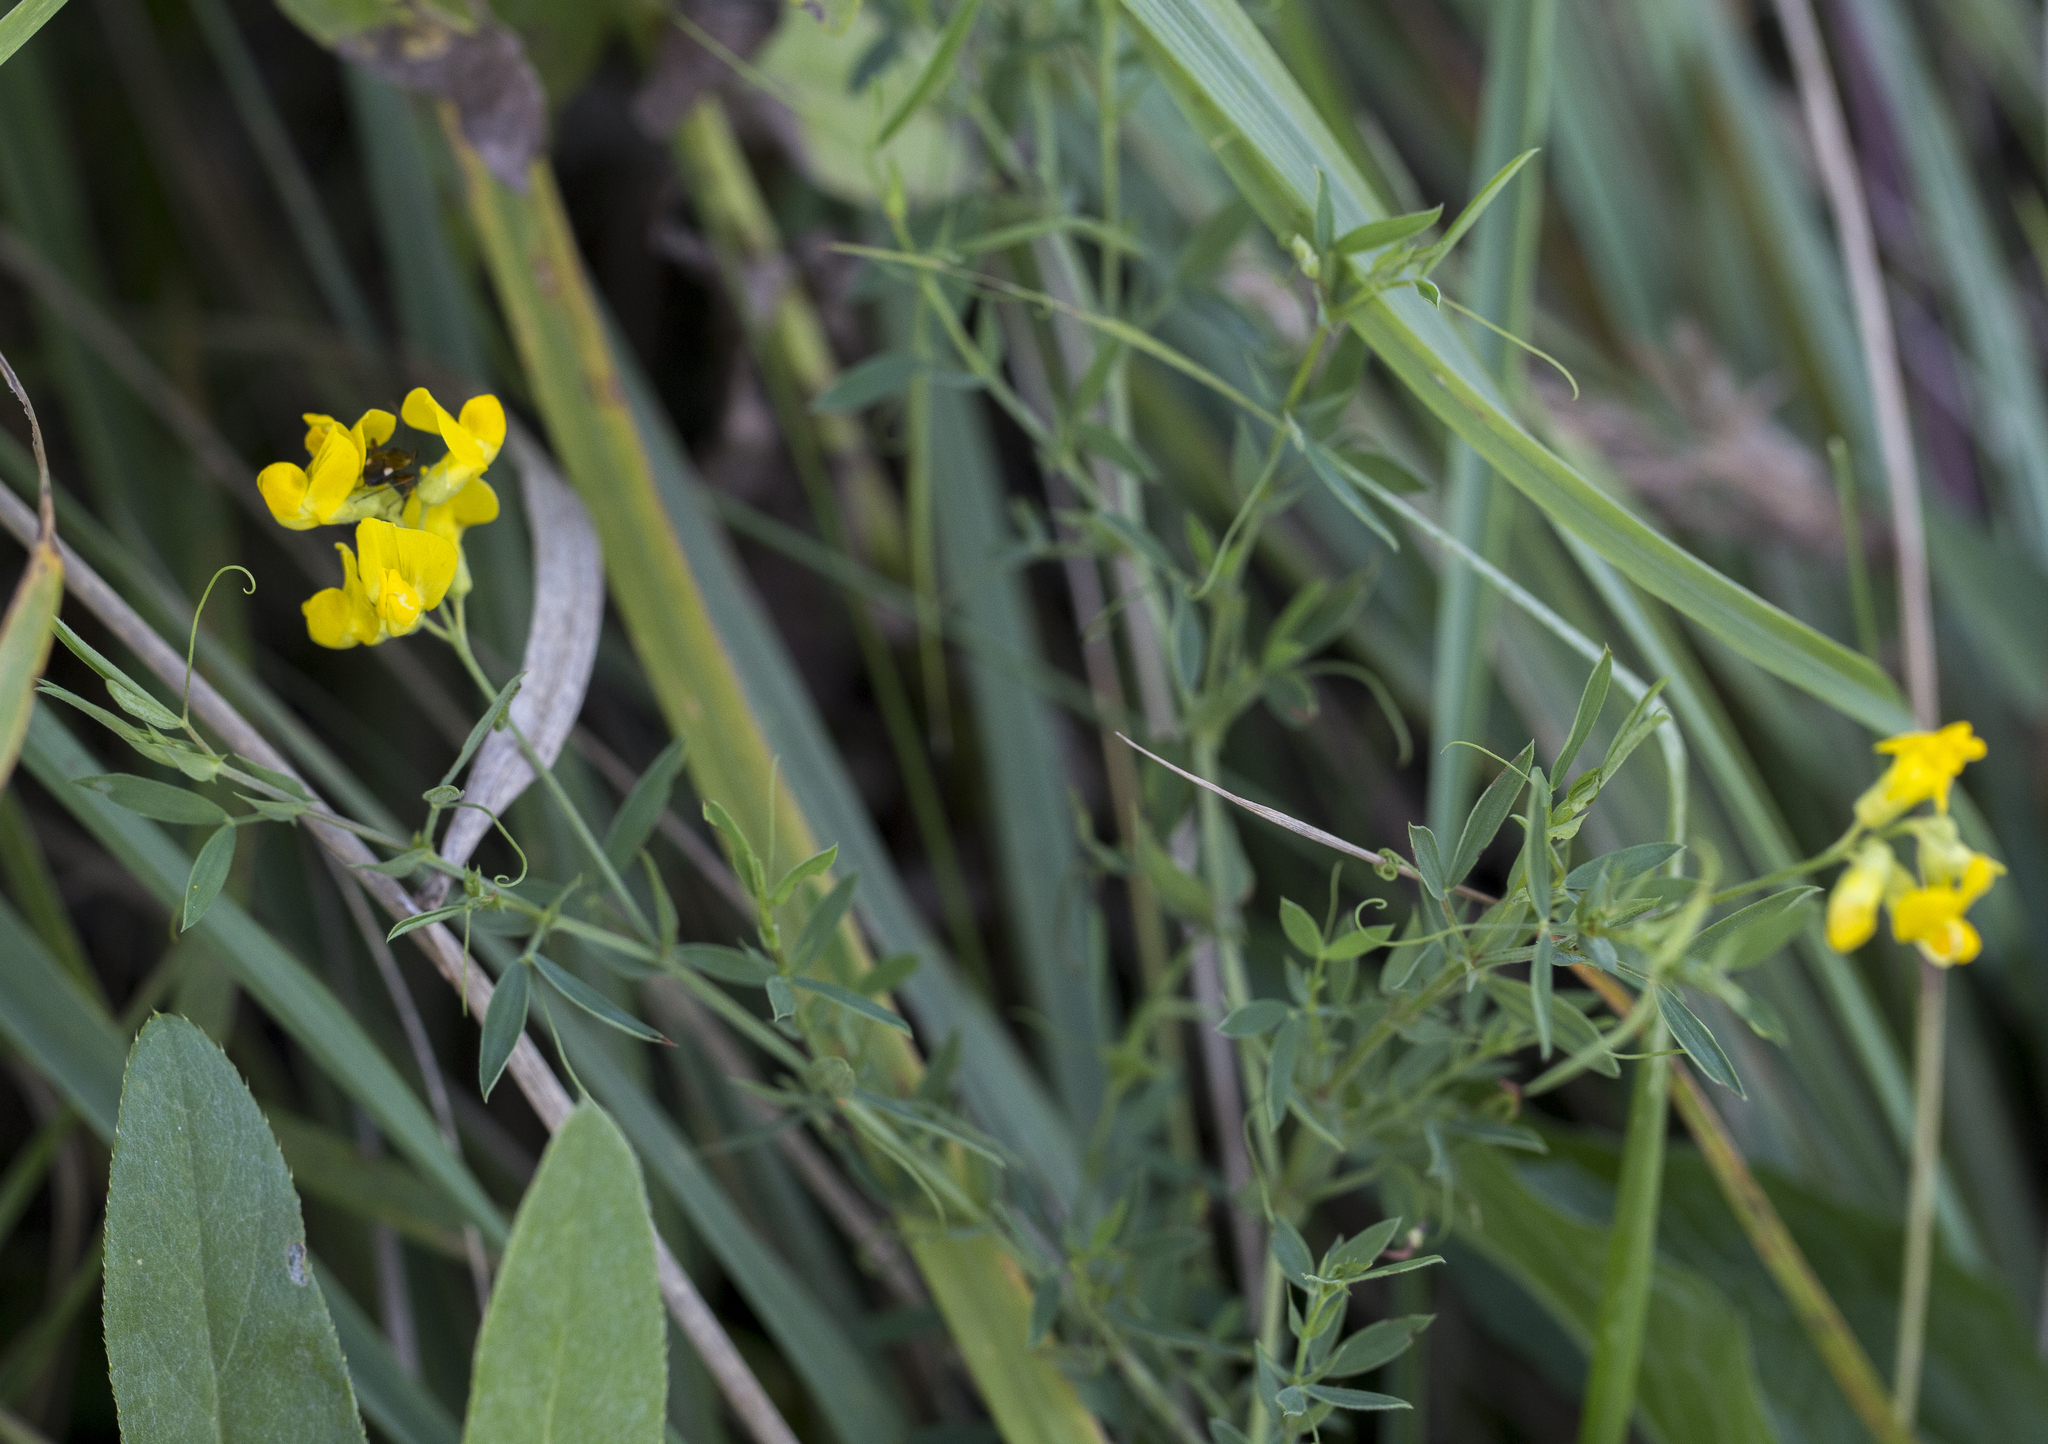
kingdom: Plantae
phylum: Tracheophyta
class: Magnoliopsida
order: Fabales
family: Fabaceae
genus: Lathyrus
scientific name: Lathyrus pratensis
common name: Meadow vetchling
